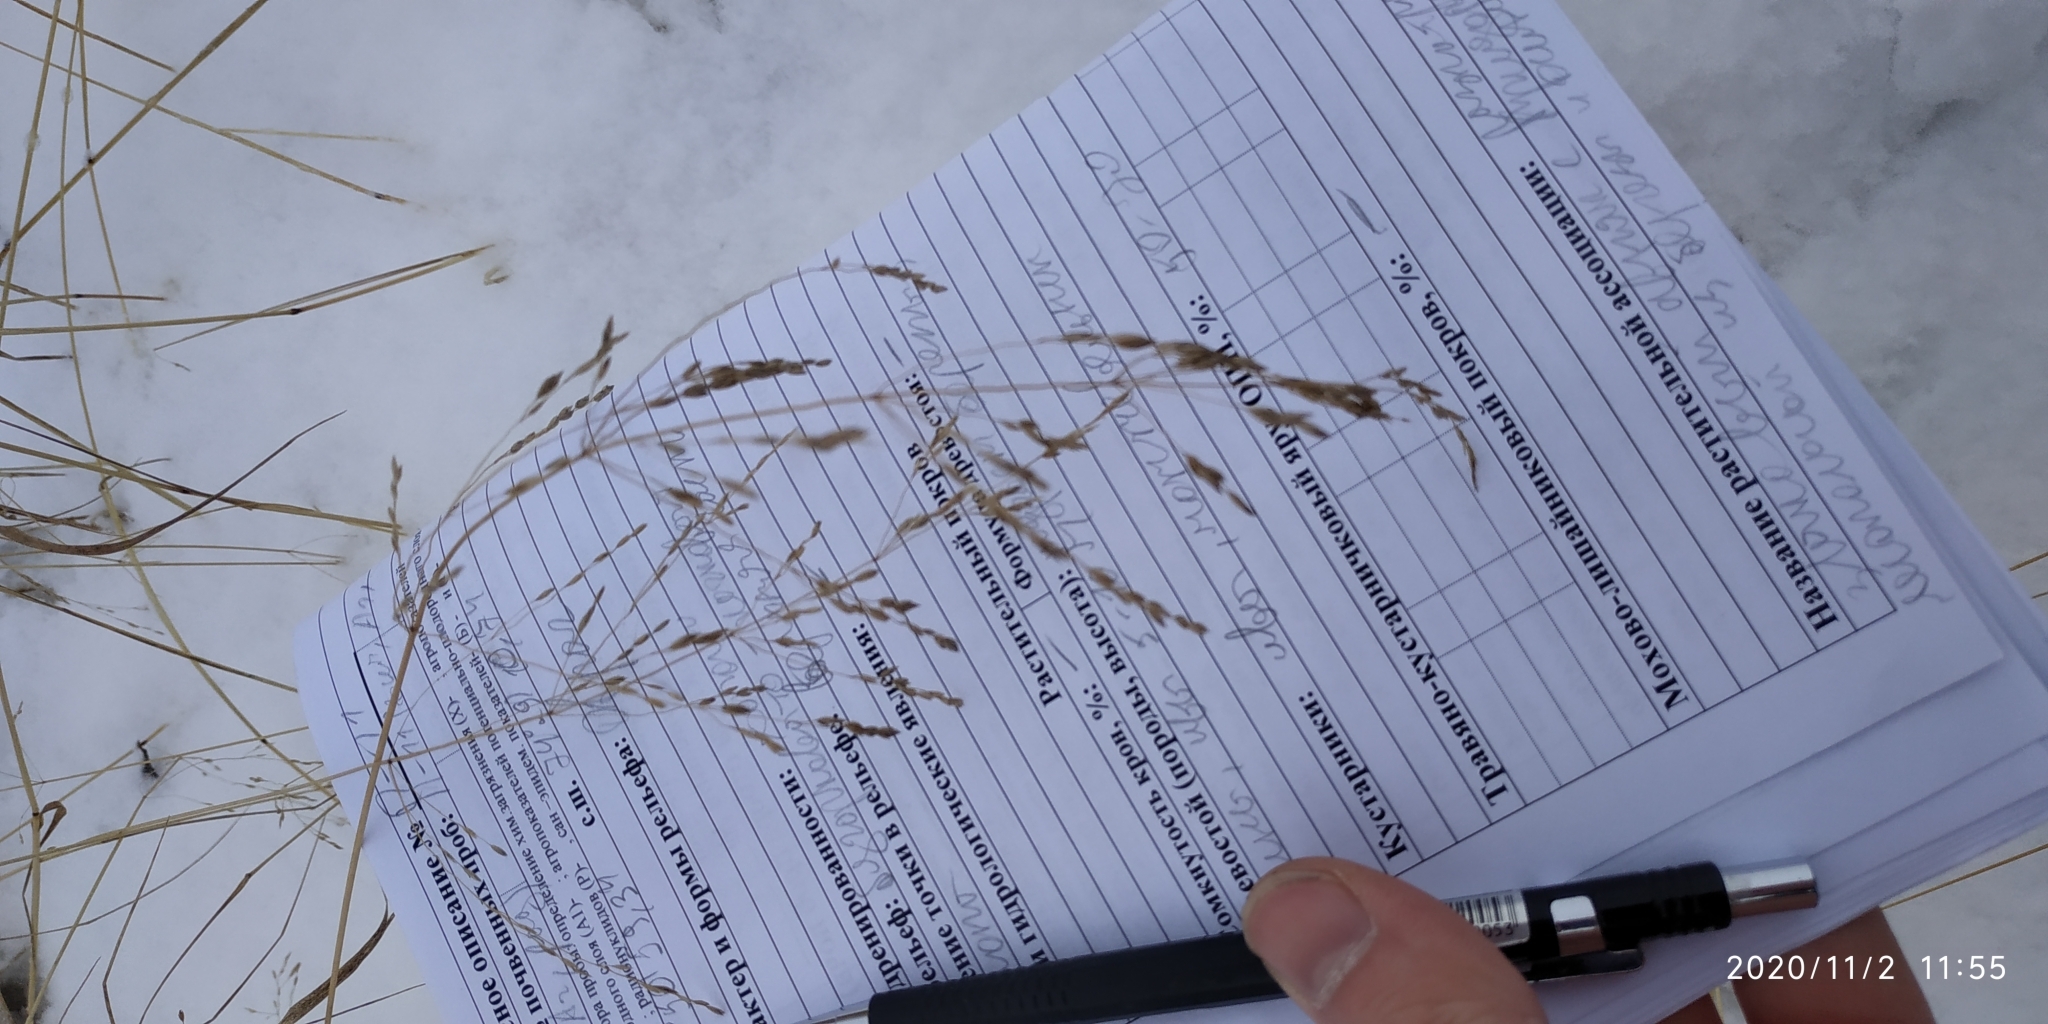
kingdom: Plantae
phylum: Tracheophyta
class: Liliopsida
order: Poales
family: Poaceae
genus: Agrostis
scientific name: Agrostis gigantea
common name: Black bent
